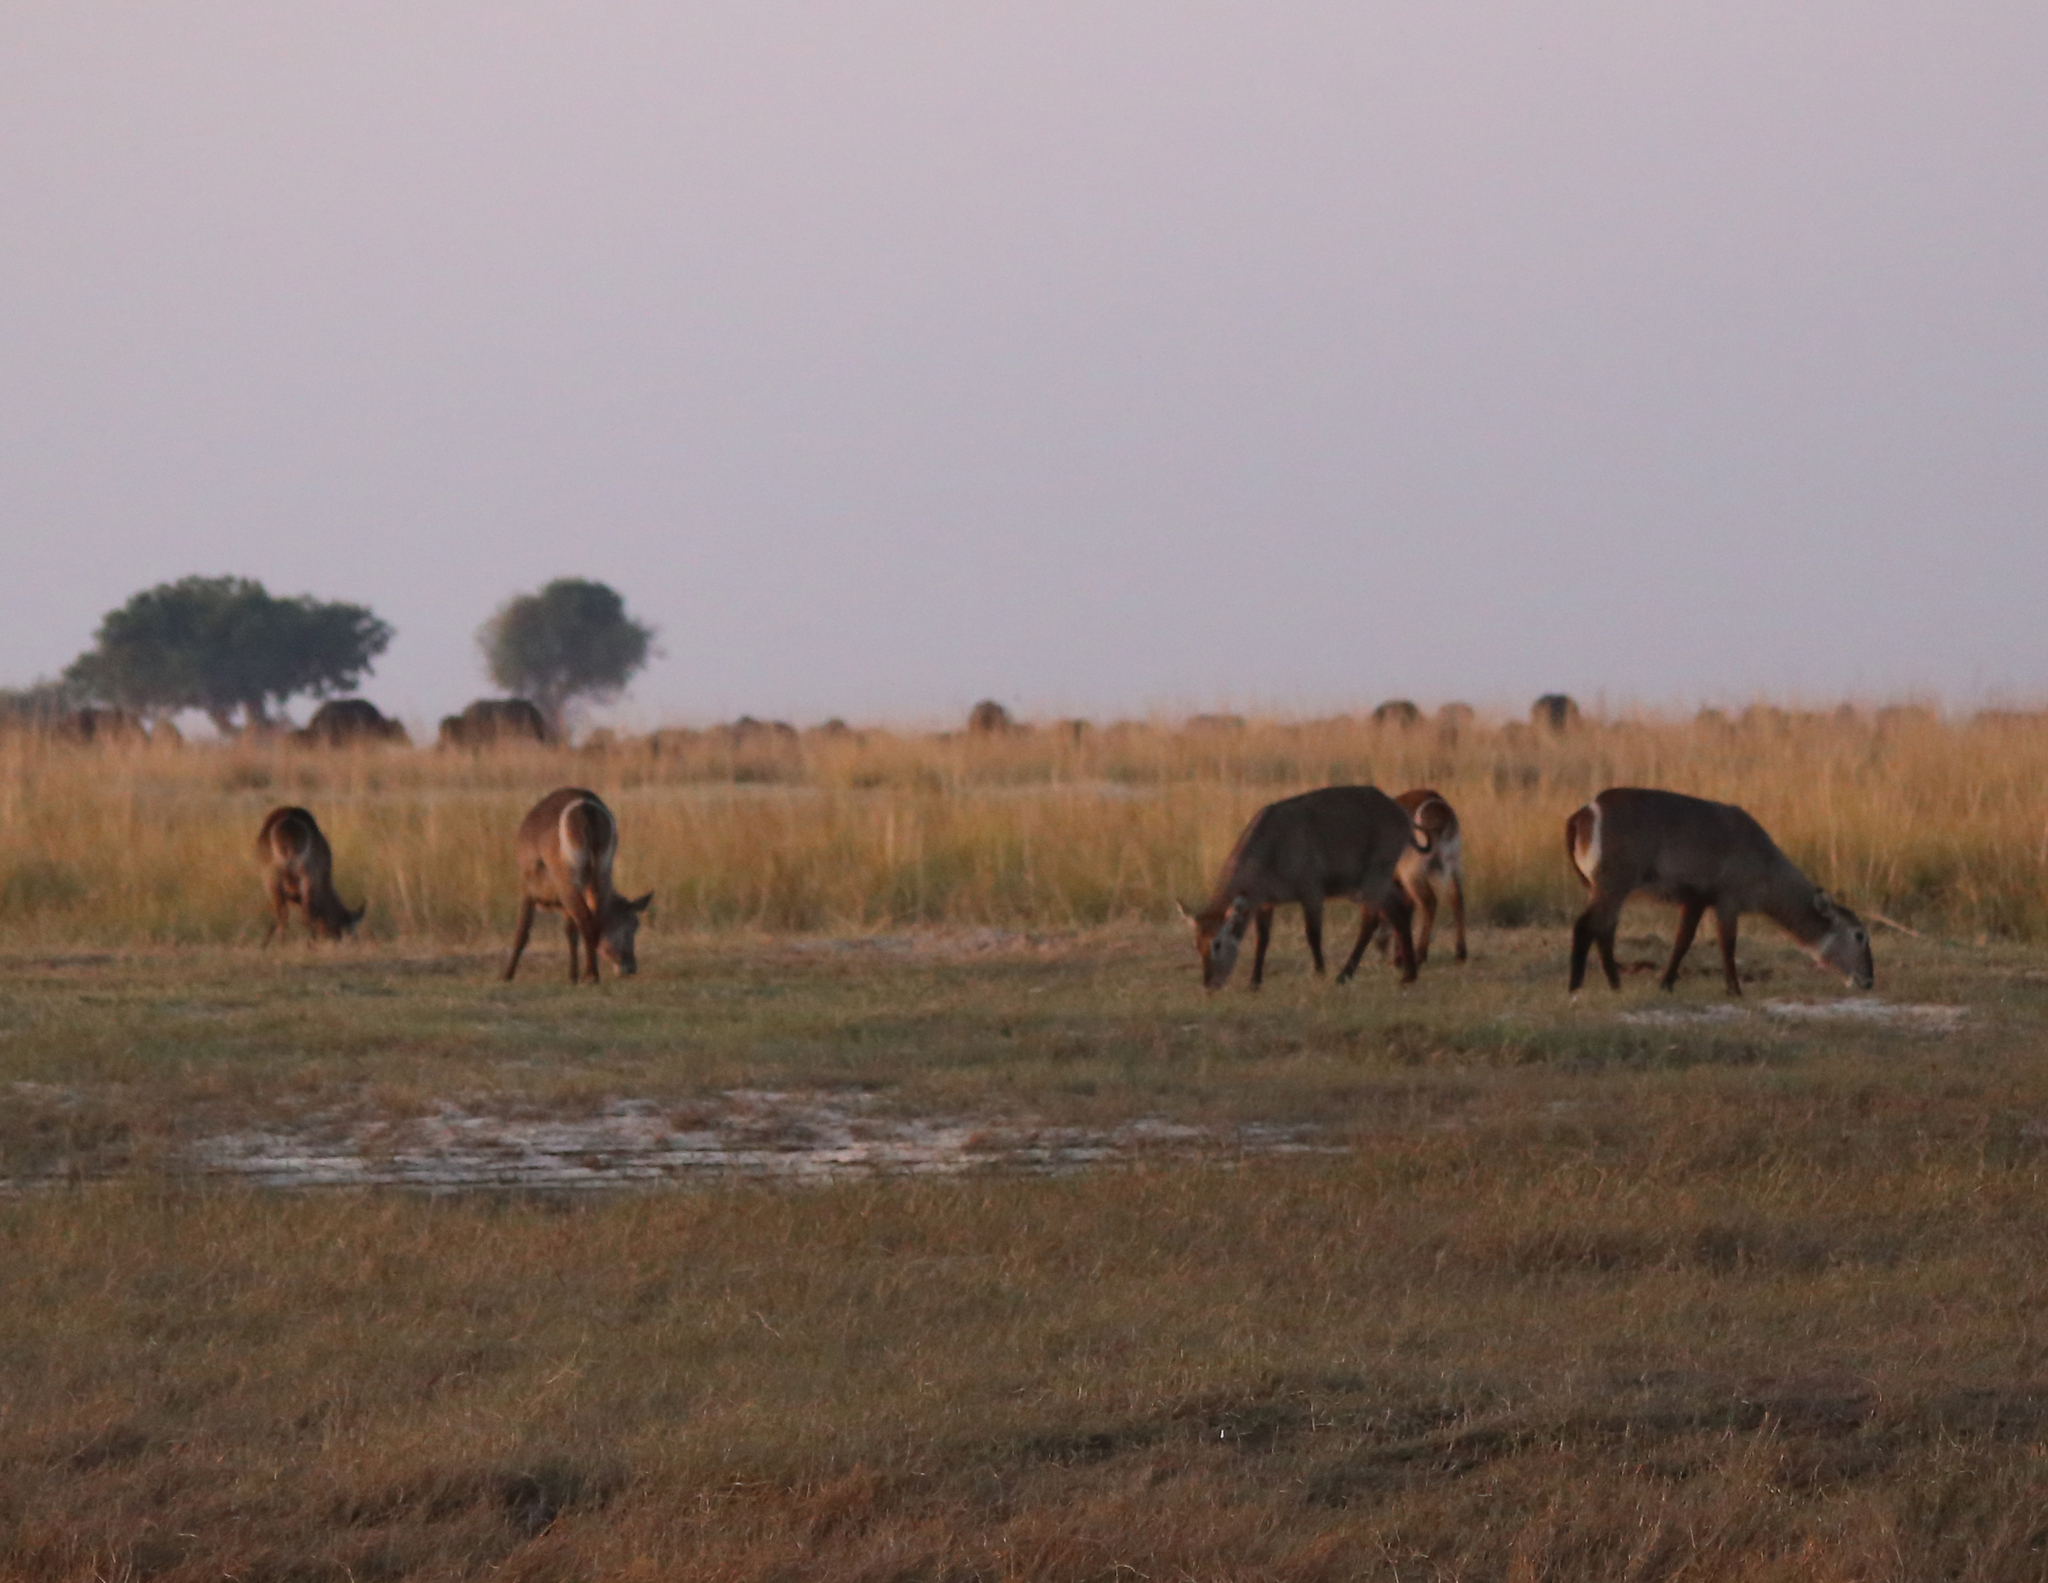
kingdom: Animalia
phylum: Chordata
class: Mammalia
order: Artiodactyla
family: Bovidae
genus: Kobus
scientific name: Kobus ellipsiprymnus
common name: Waterbuck
